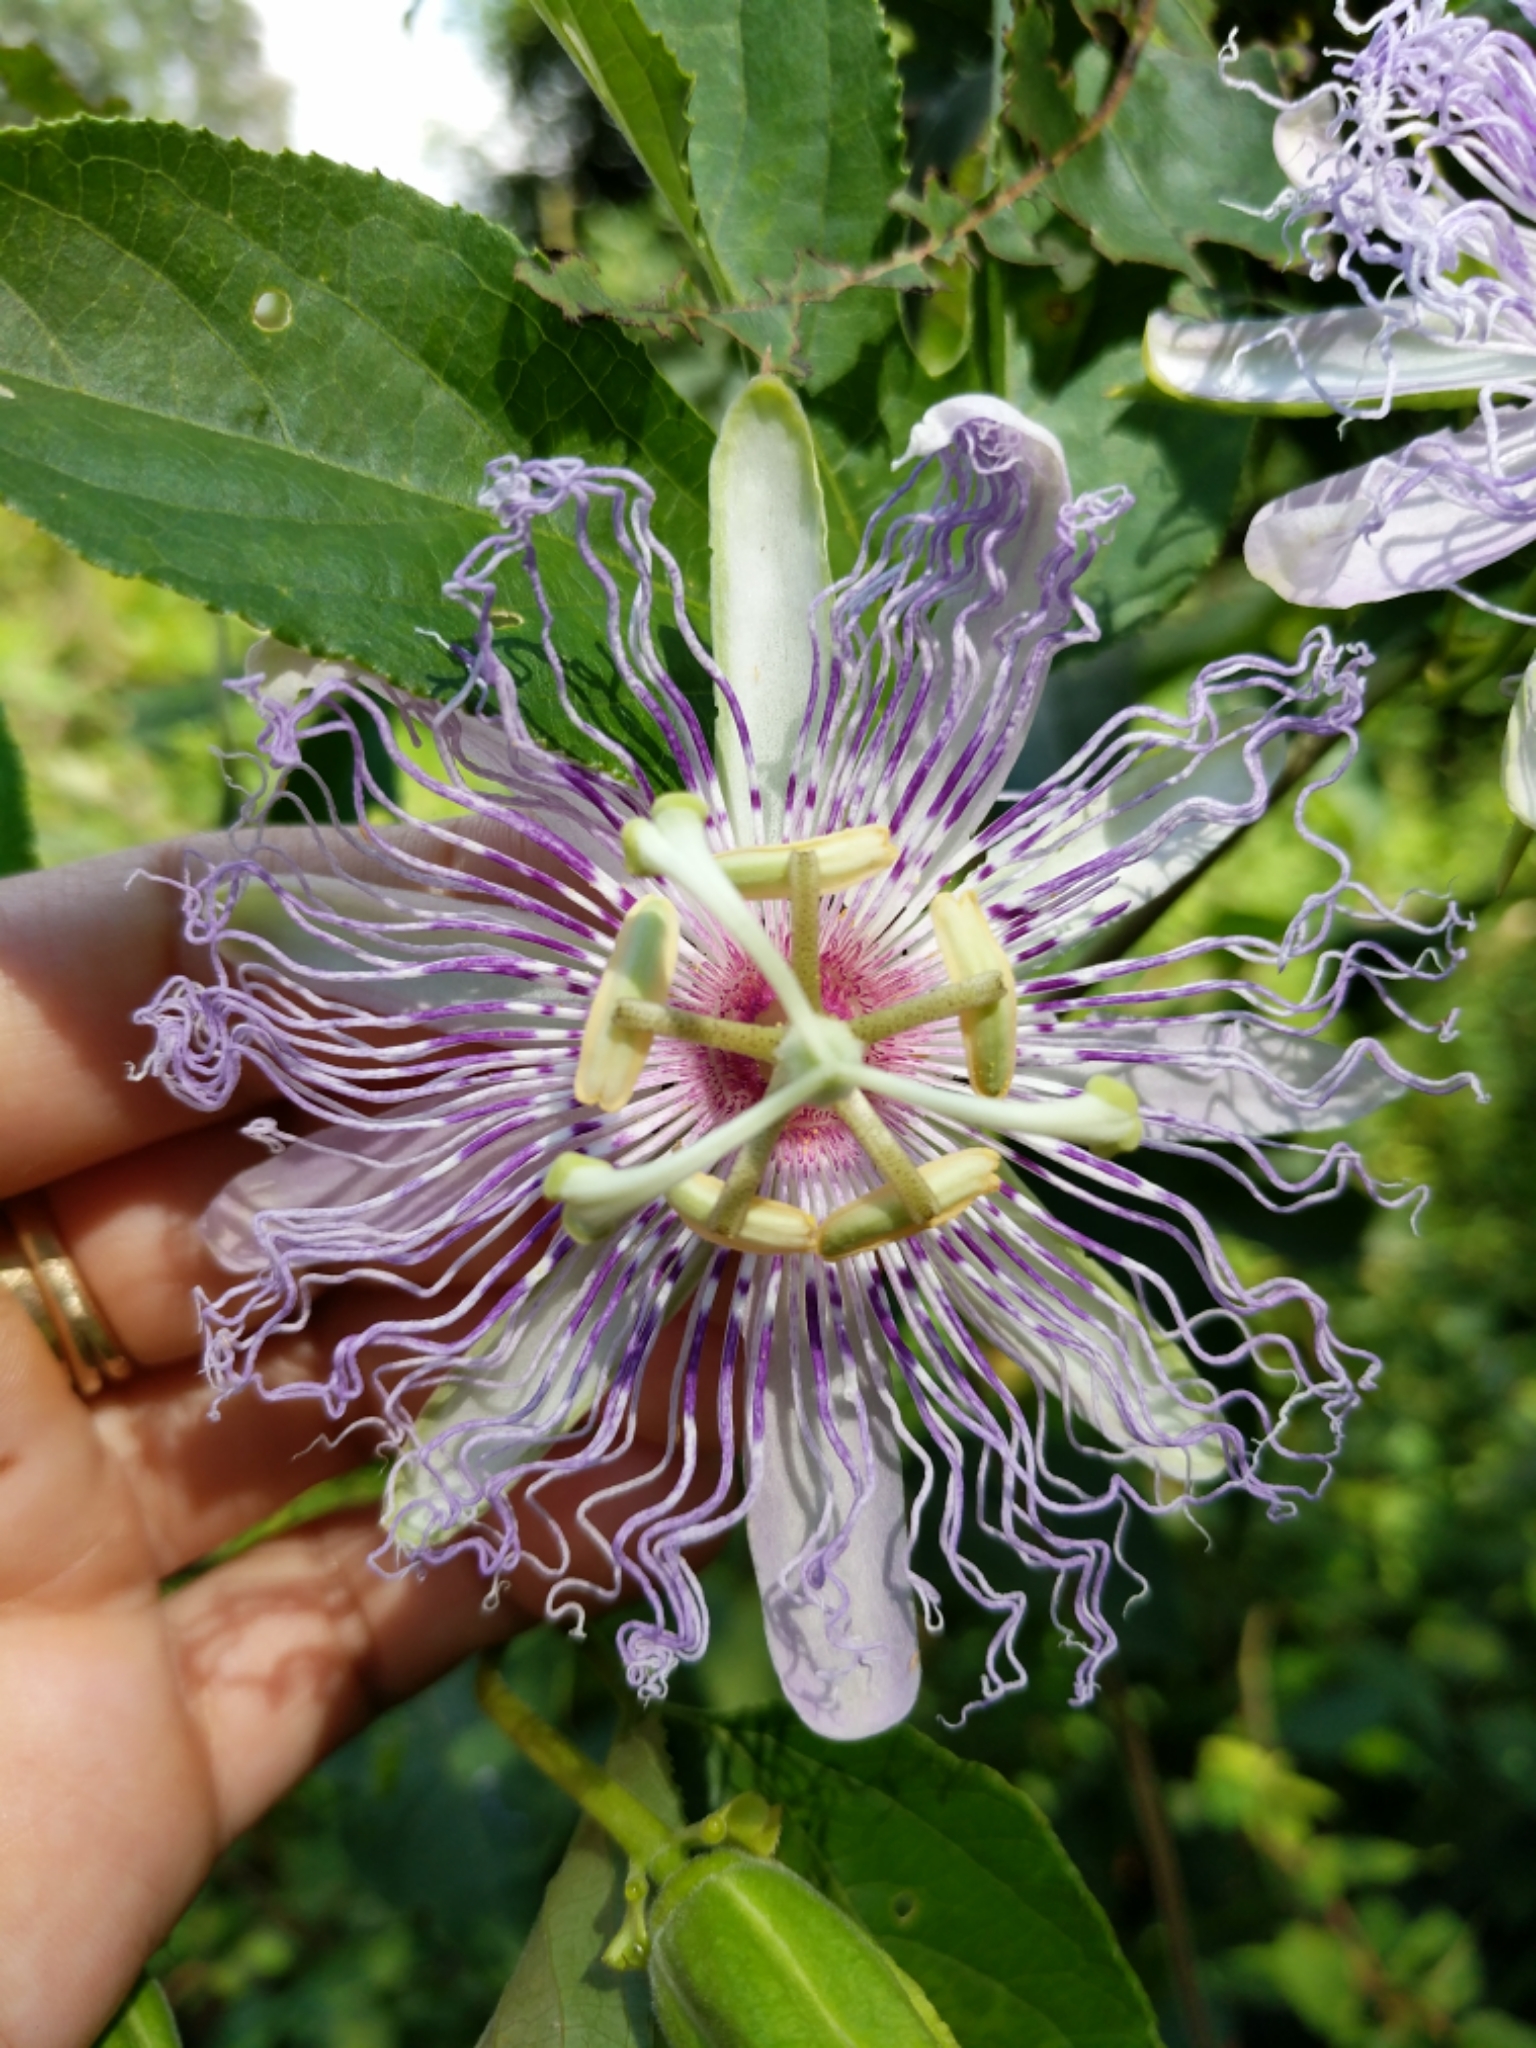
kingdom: Plantae
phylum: Tracheophyta
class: Magnoliopsida
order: Malpighiales
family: Passifloraceae
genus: Passiflora
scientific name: Passiflora incarnata
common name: Apricot-vine
